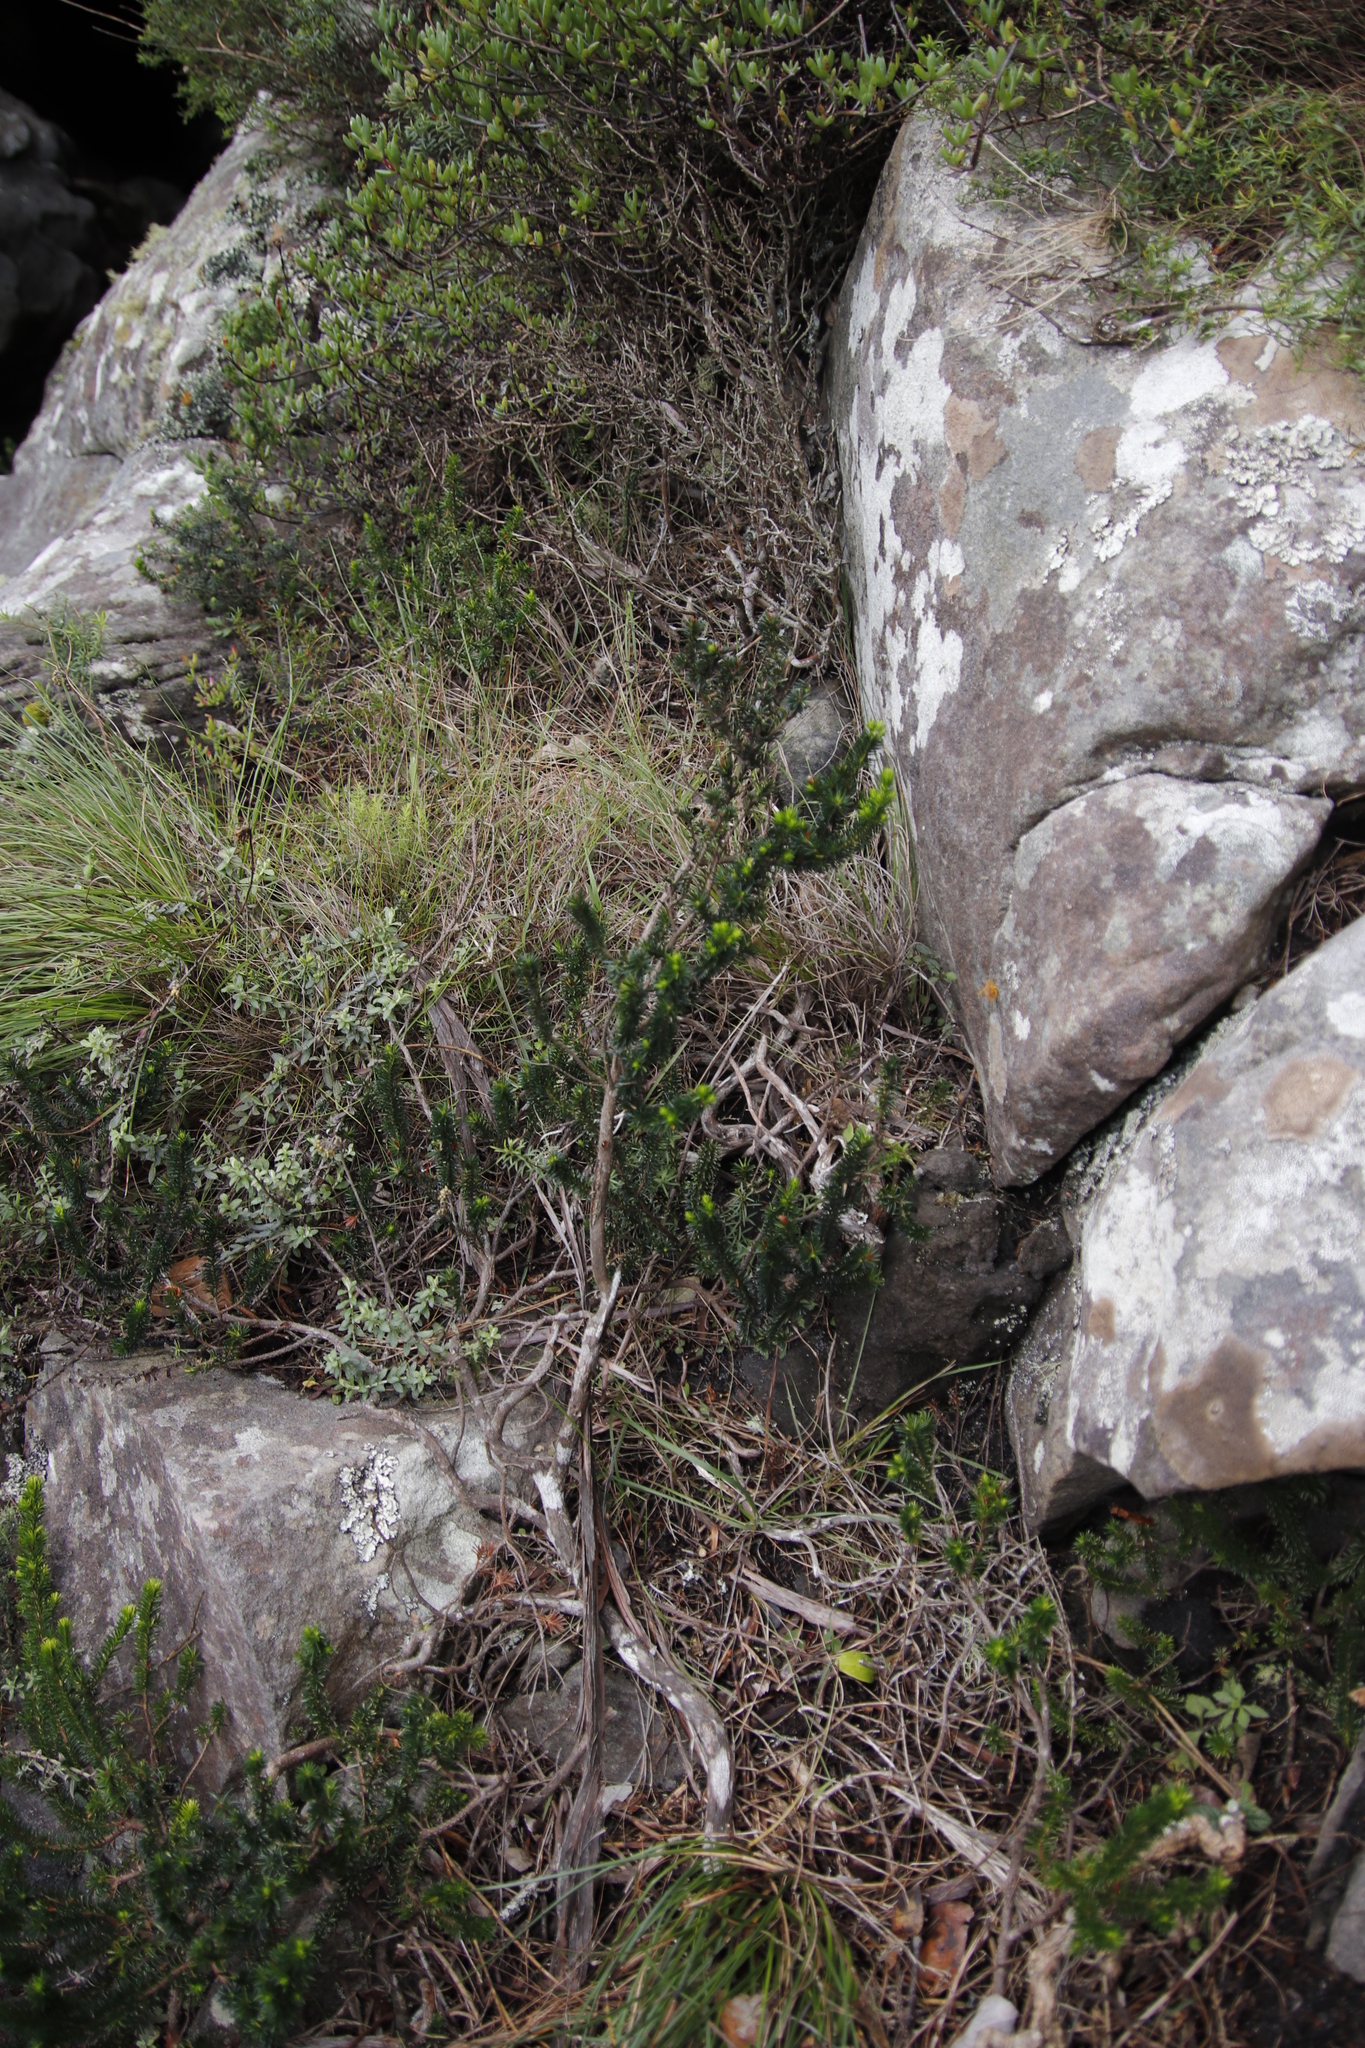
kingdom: Plantae
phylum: Tracheophyta
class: Magnoliopsida
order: Ericales
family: Ericaceae
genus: Erica
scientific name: Erica annectens
